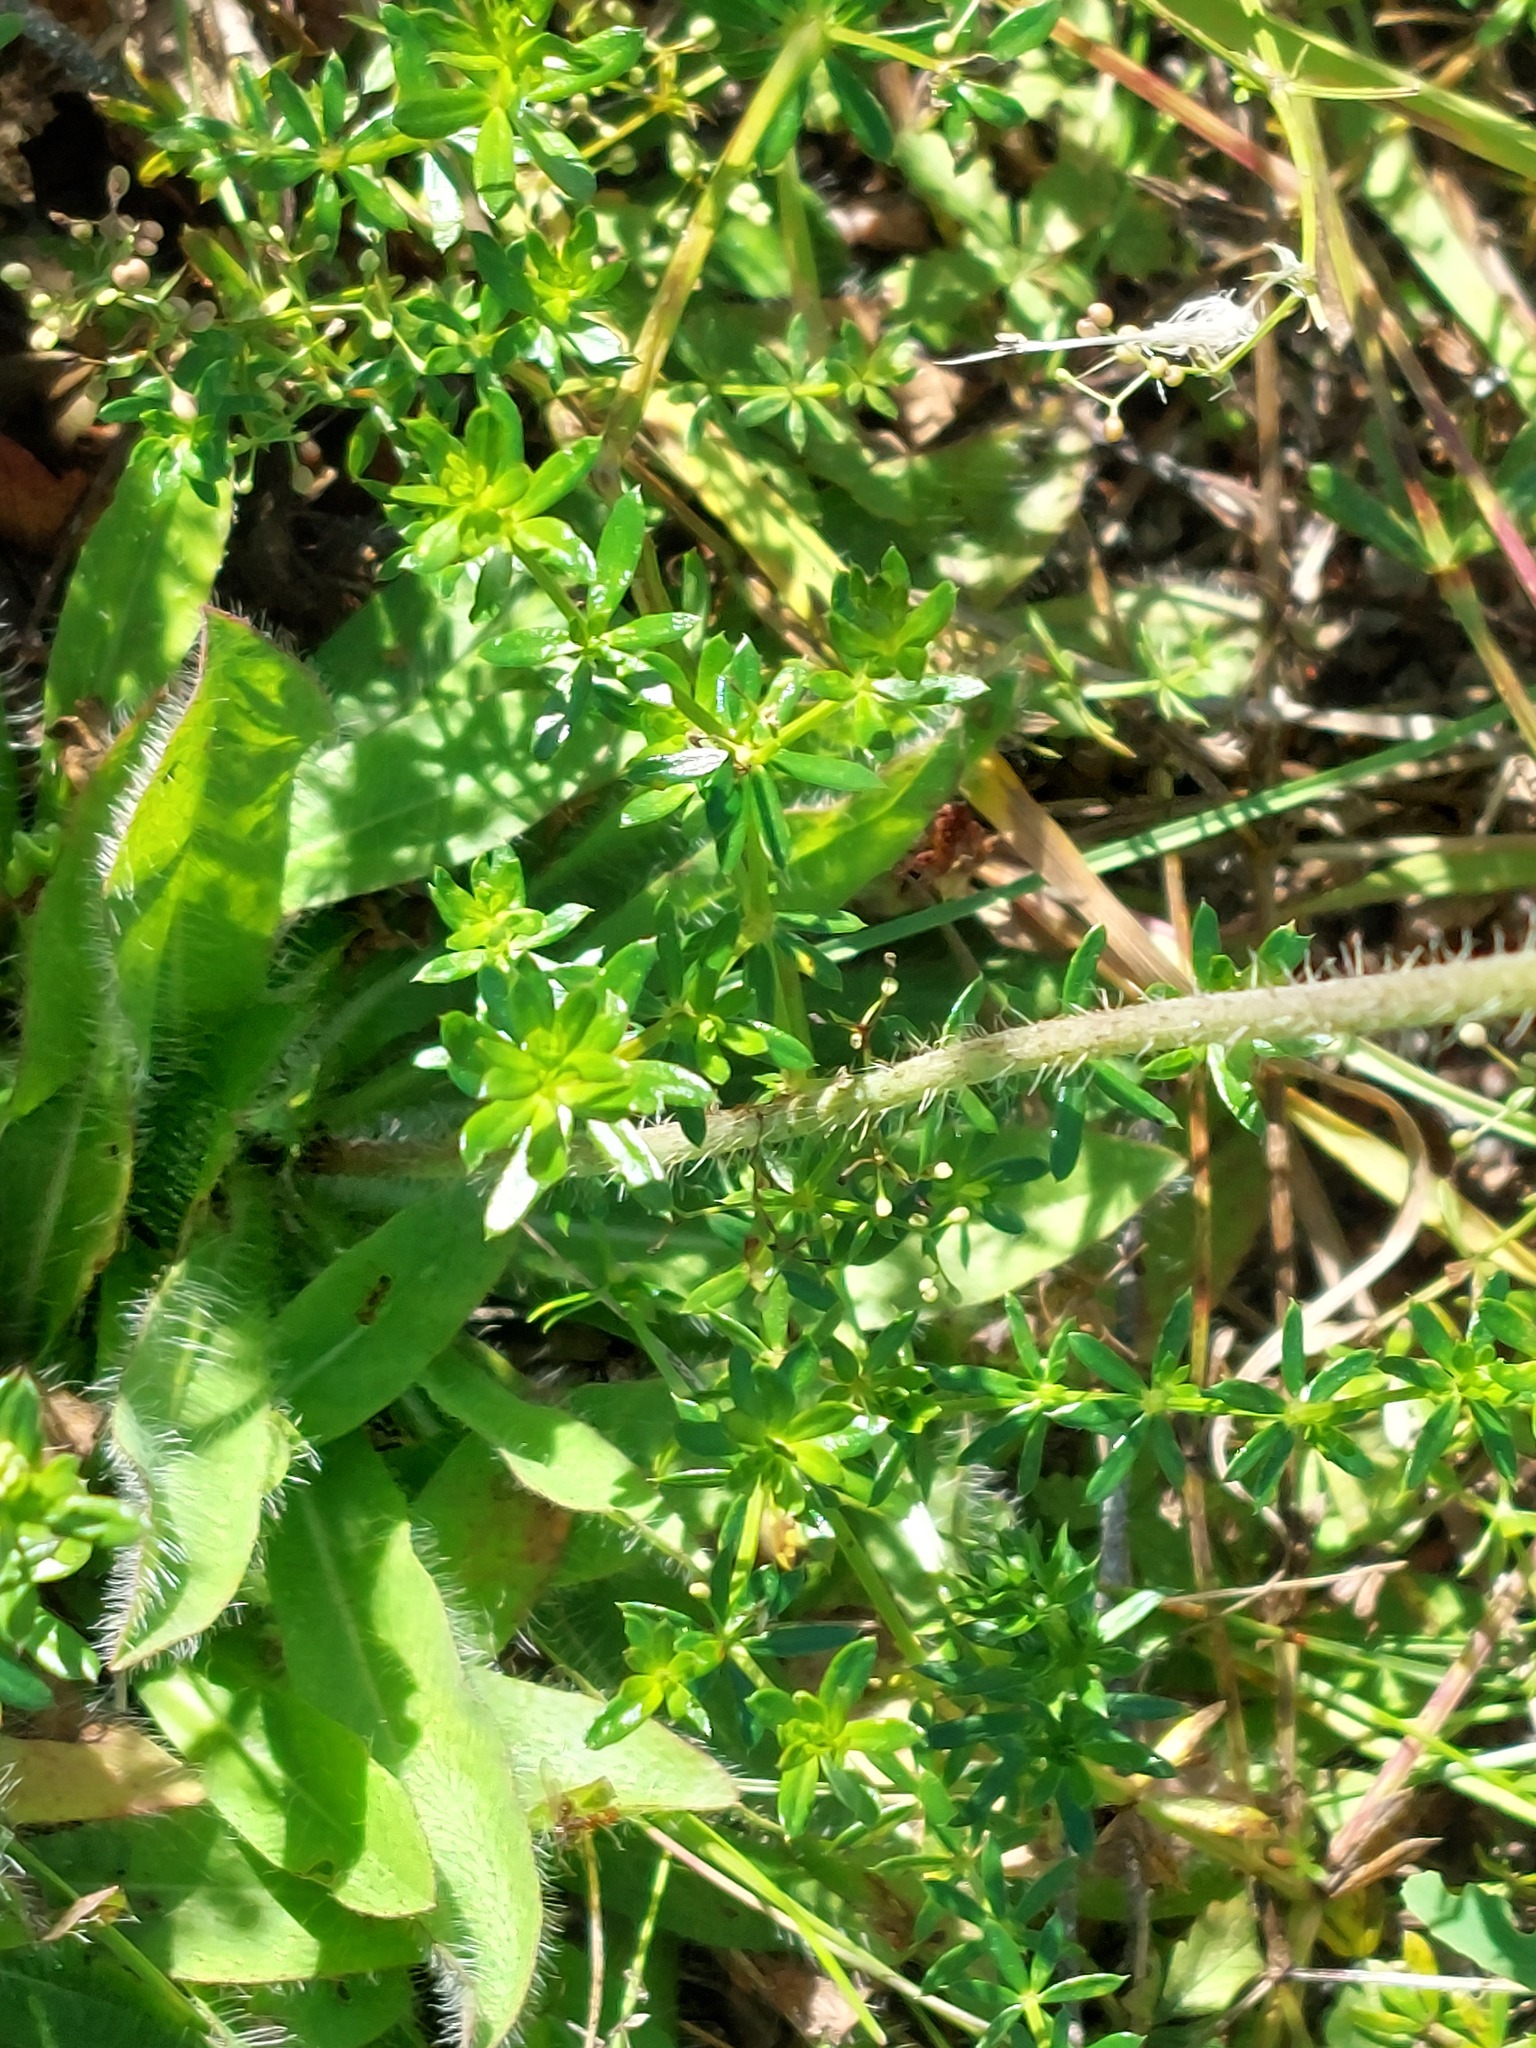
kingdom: Plantae
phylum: Tracheophyta
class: Magnoliopsida
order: Asterales
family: Asteraceae
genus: Pilosella
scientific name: Pilosella aurantiaca
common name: Fox-and-cubs
